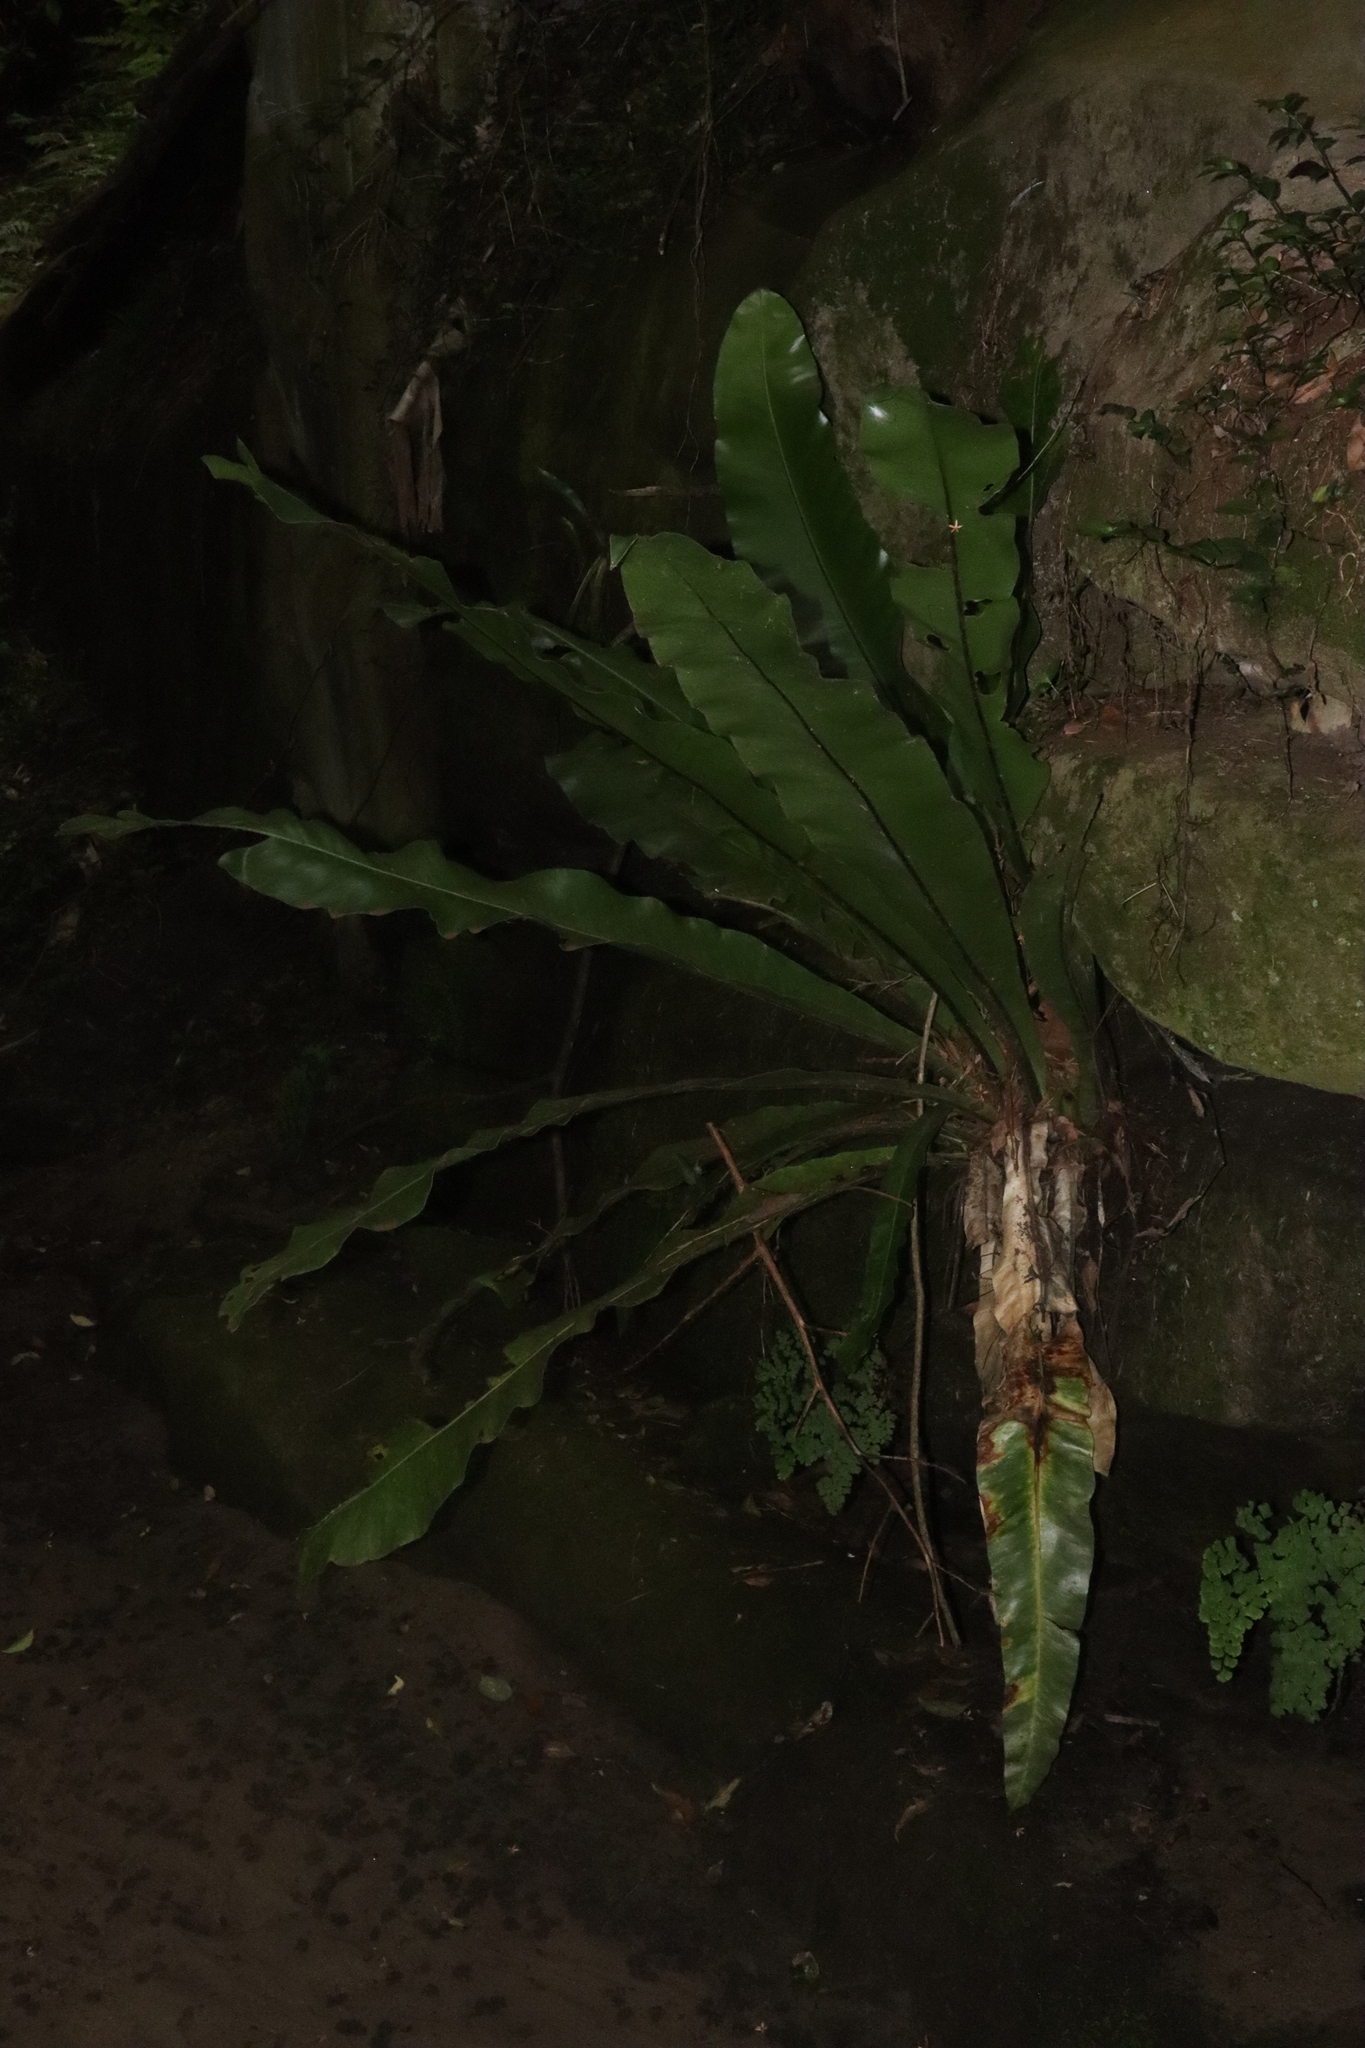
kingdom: Plantae
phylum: Tracheophyta
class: Polypodiopsida
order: Polypodiales
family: Aspleniaceae
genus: Asplenium
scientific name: Asplenium australasicum
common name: Bird's-nest fern
